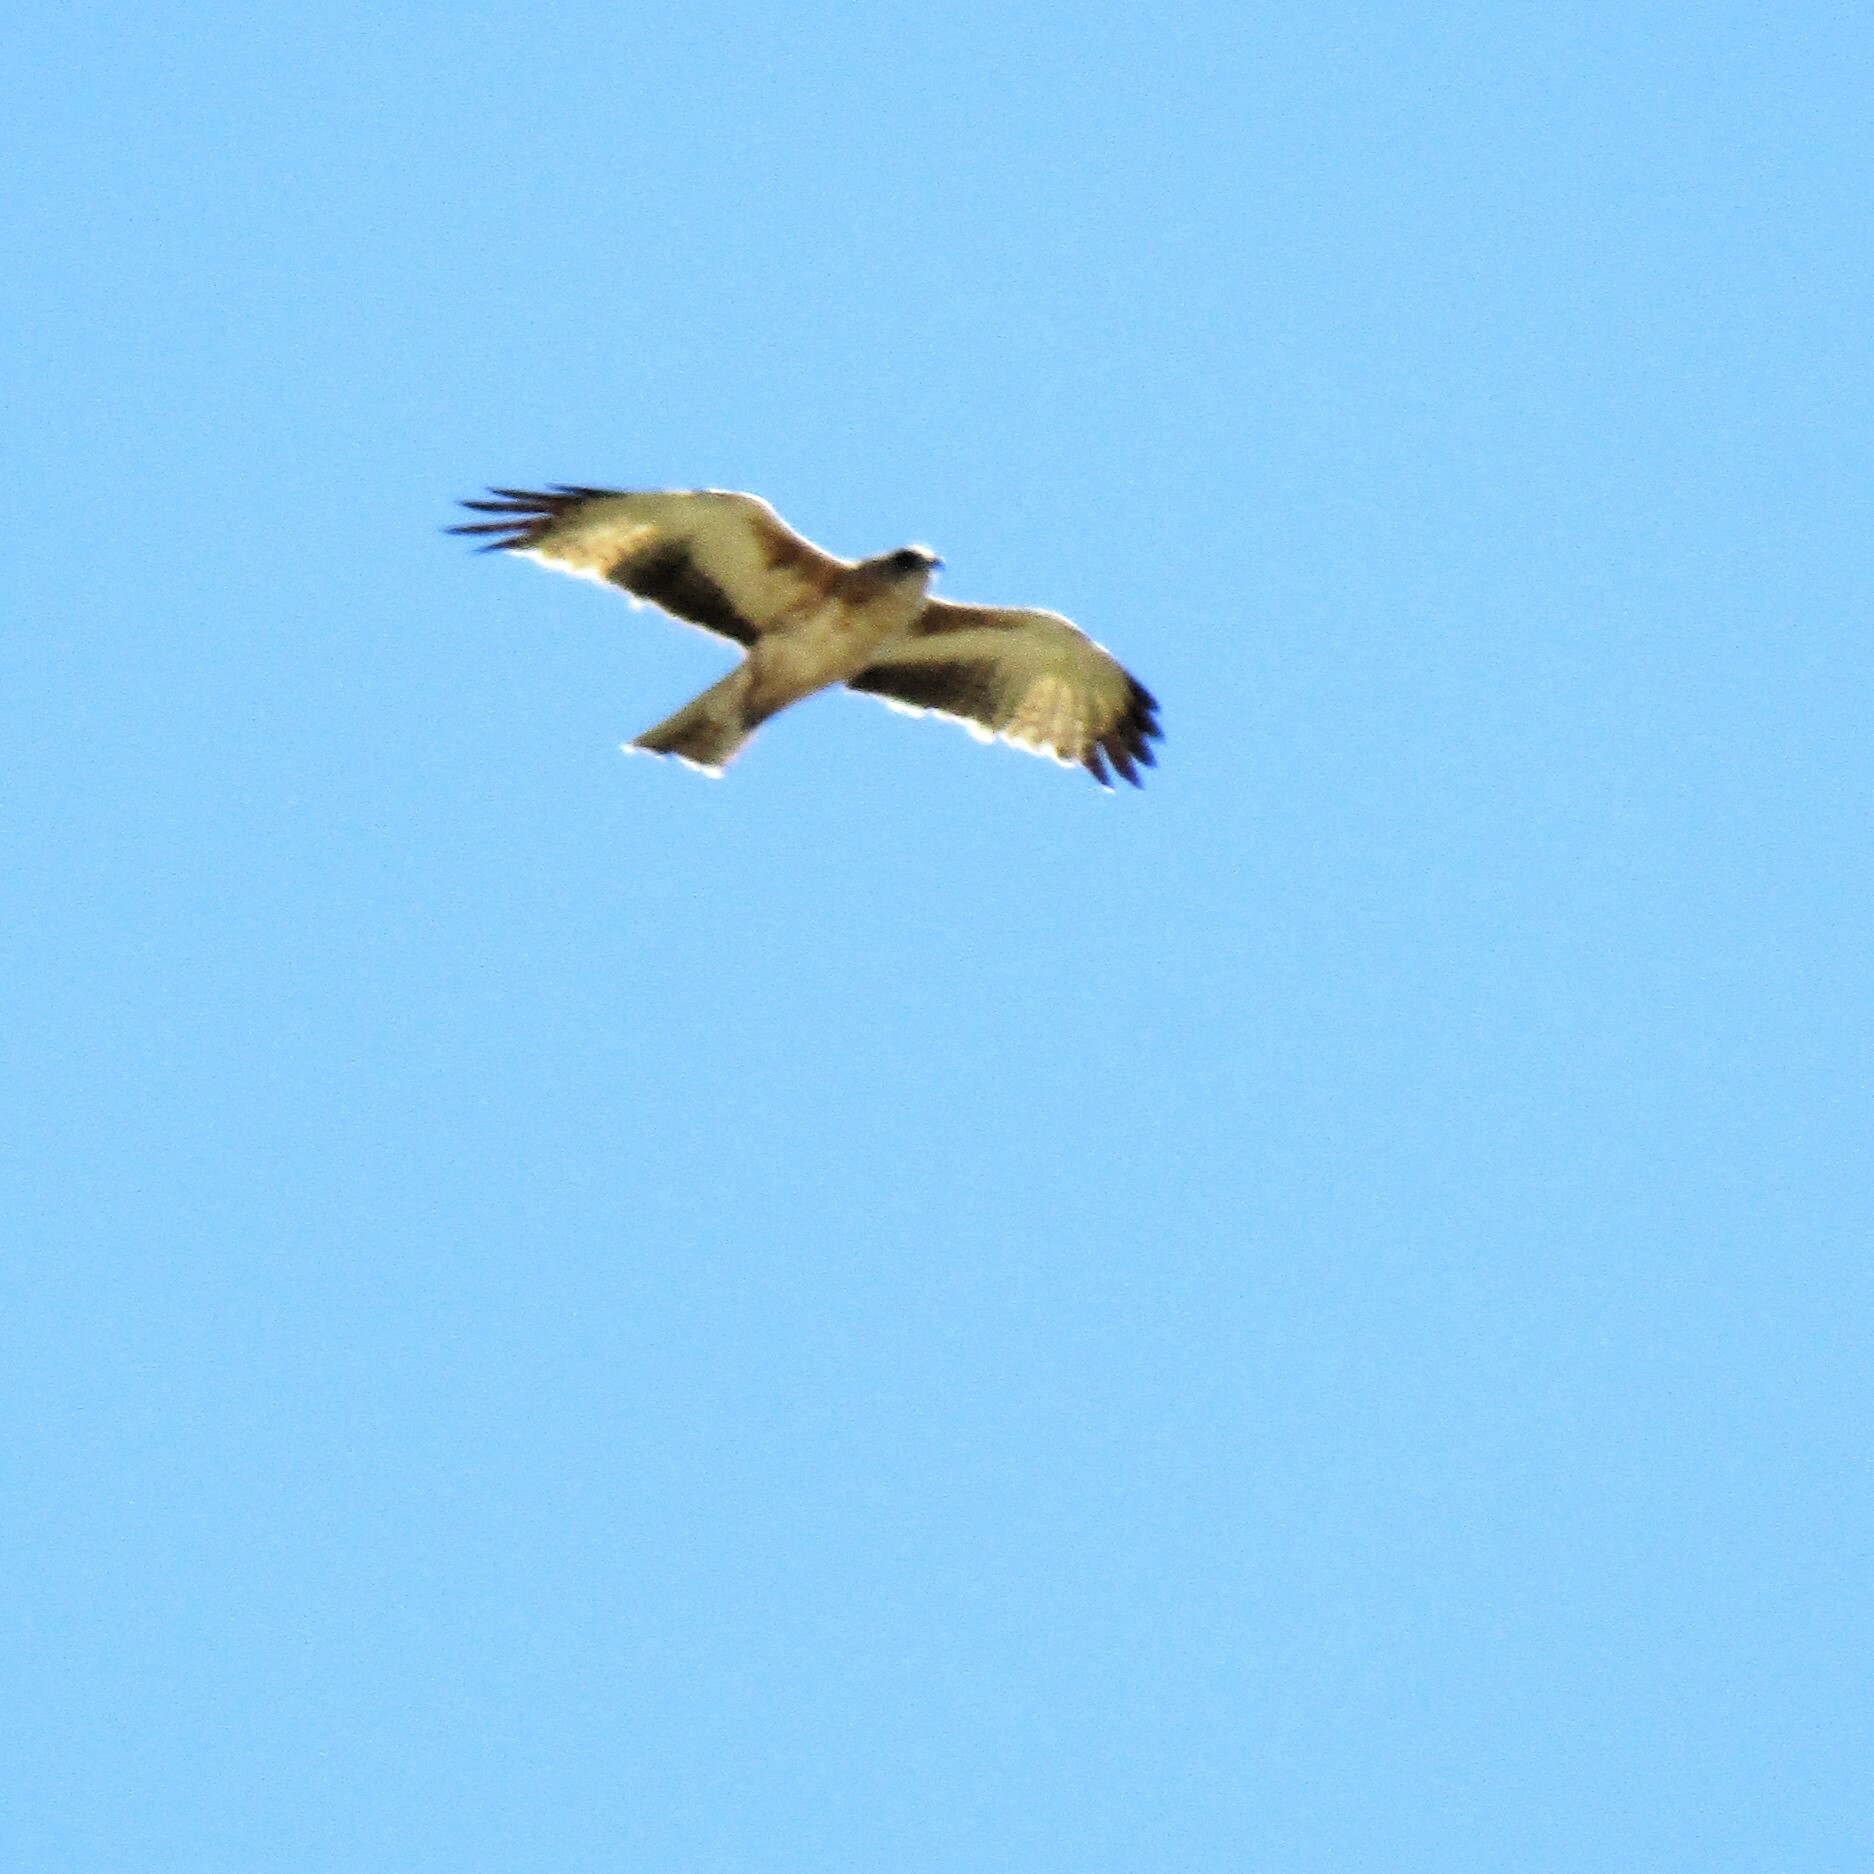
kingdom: Animalia
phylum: Chordata
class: Aves
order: Accipitriformes
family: Accipitridae
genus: Hieraaetus
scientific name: Hieraaetus morphnoides
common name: Little eagle
